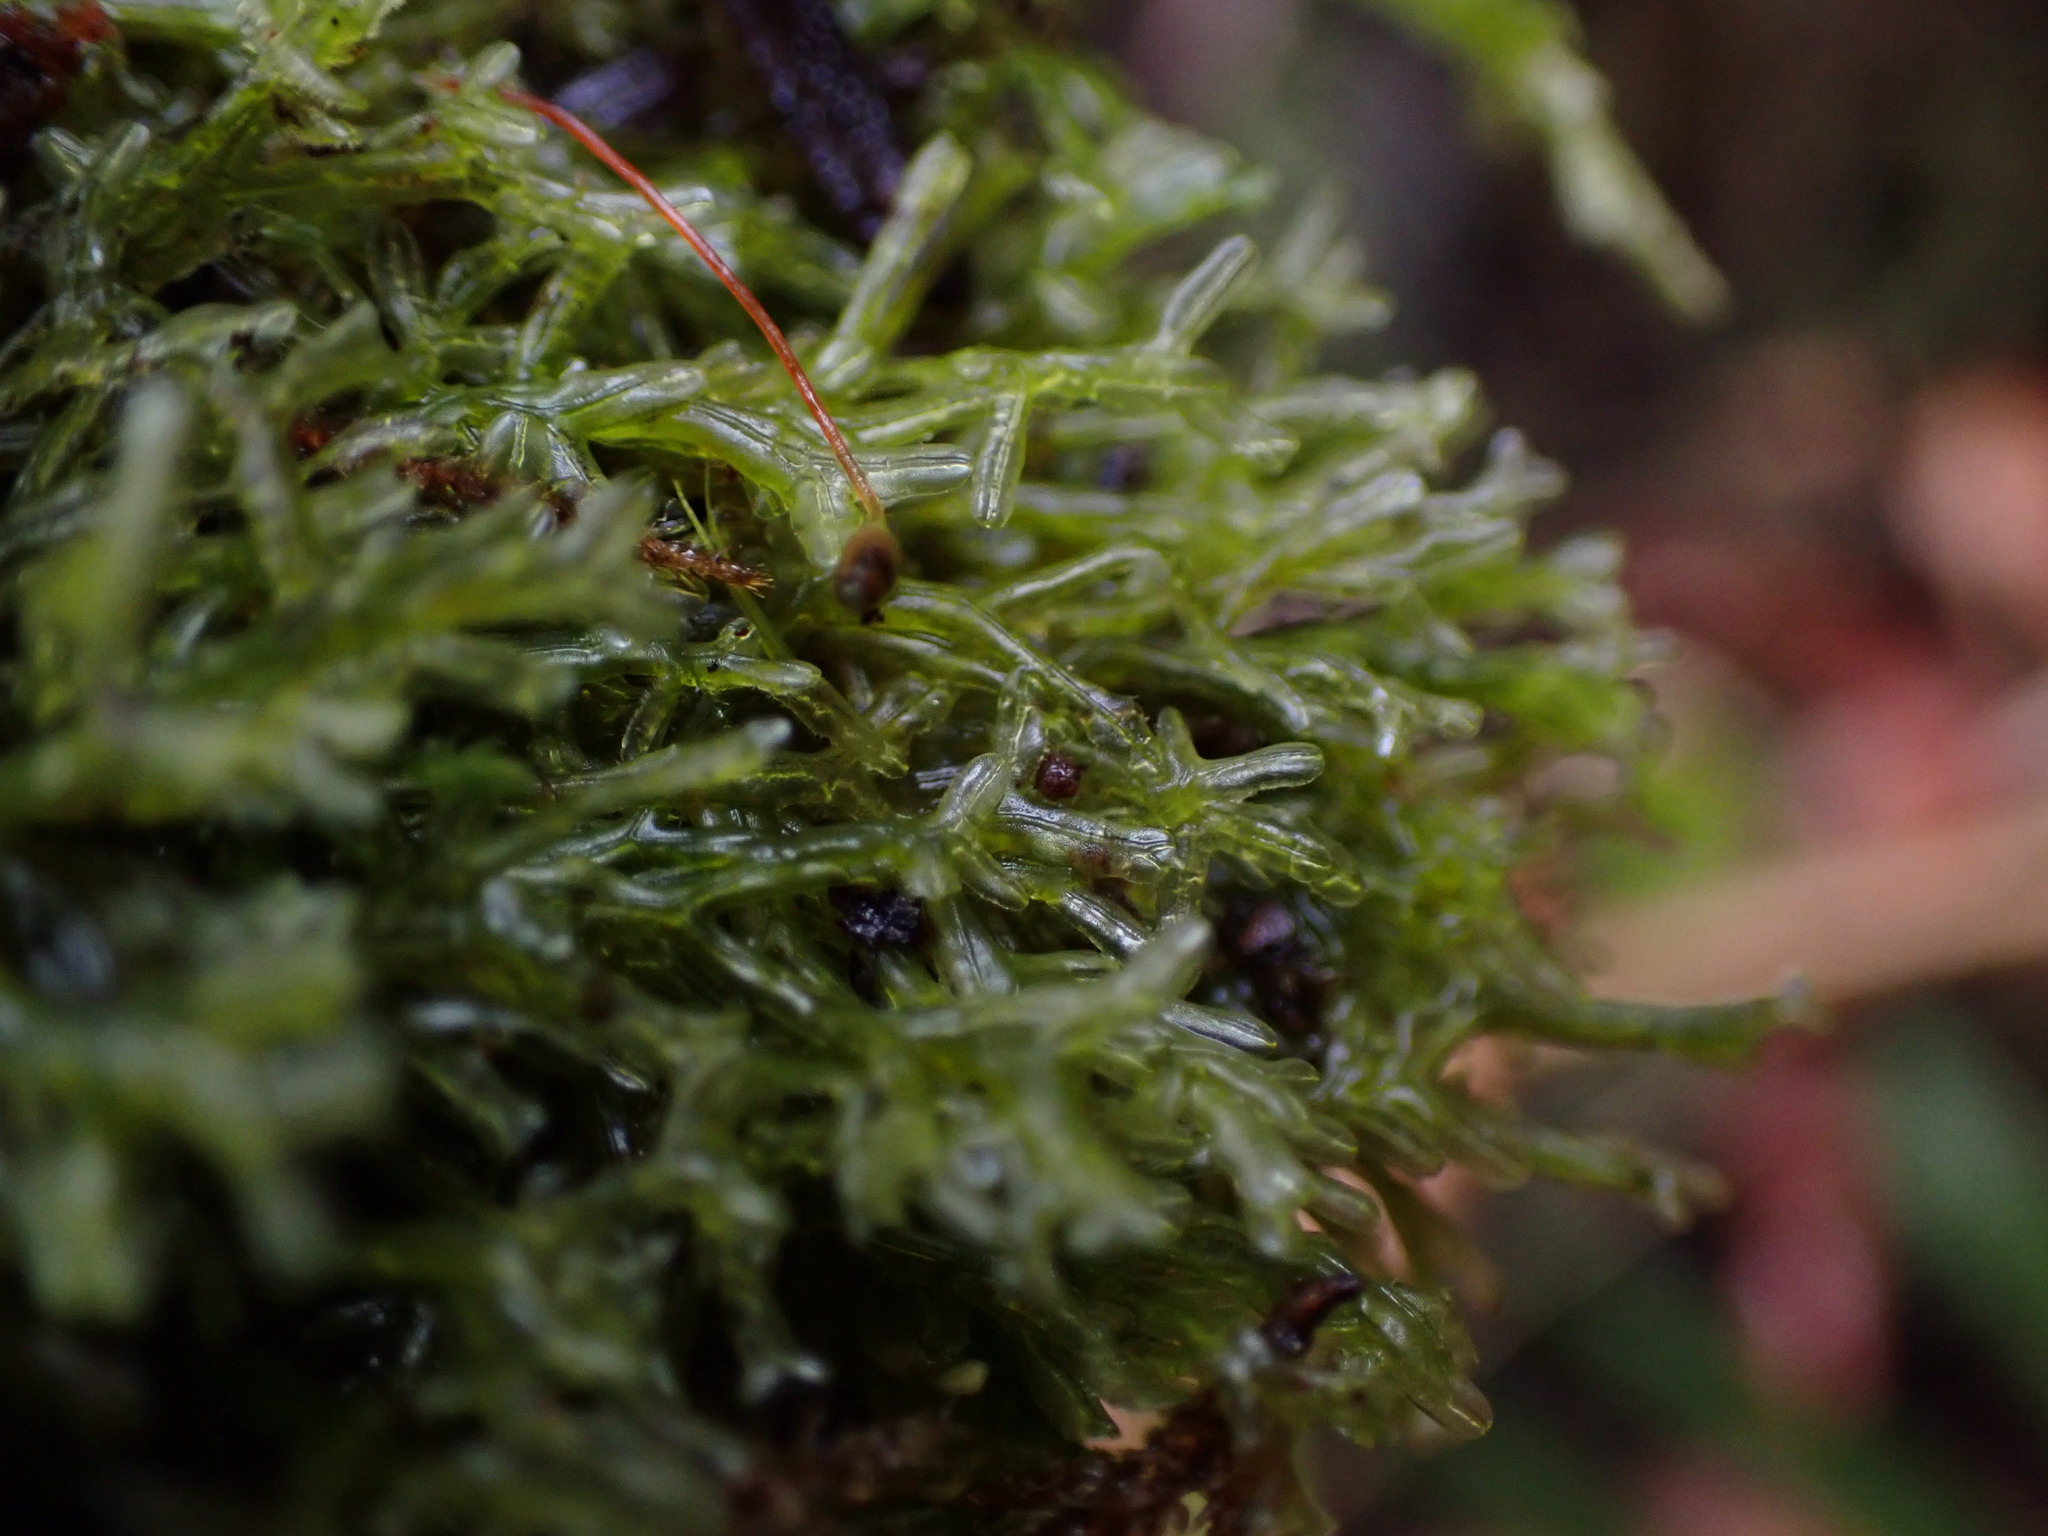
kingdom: Plantae
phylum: Marchantiophyta
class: Jungermanniopsida
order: Metzgeriales
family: Metzgeriaceae
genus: Metzgeria
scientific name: Metzgeria conjugata
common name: Rock veilwort
